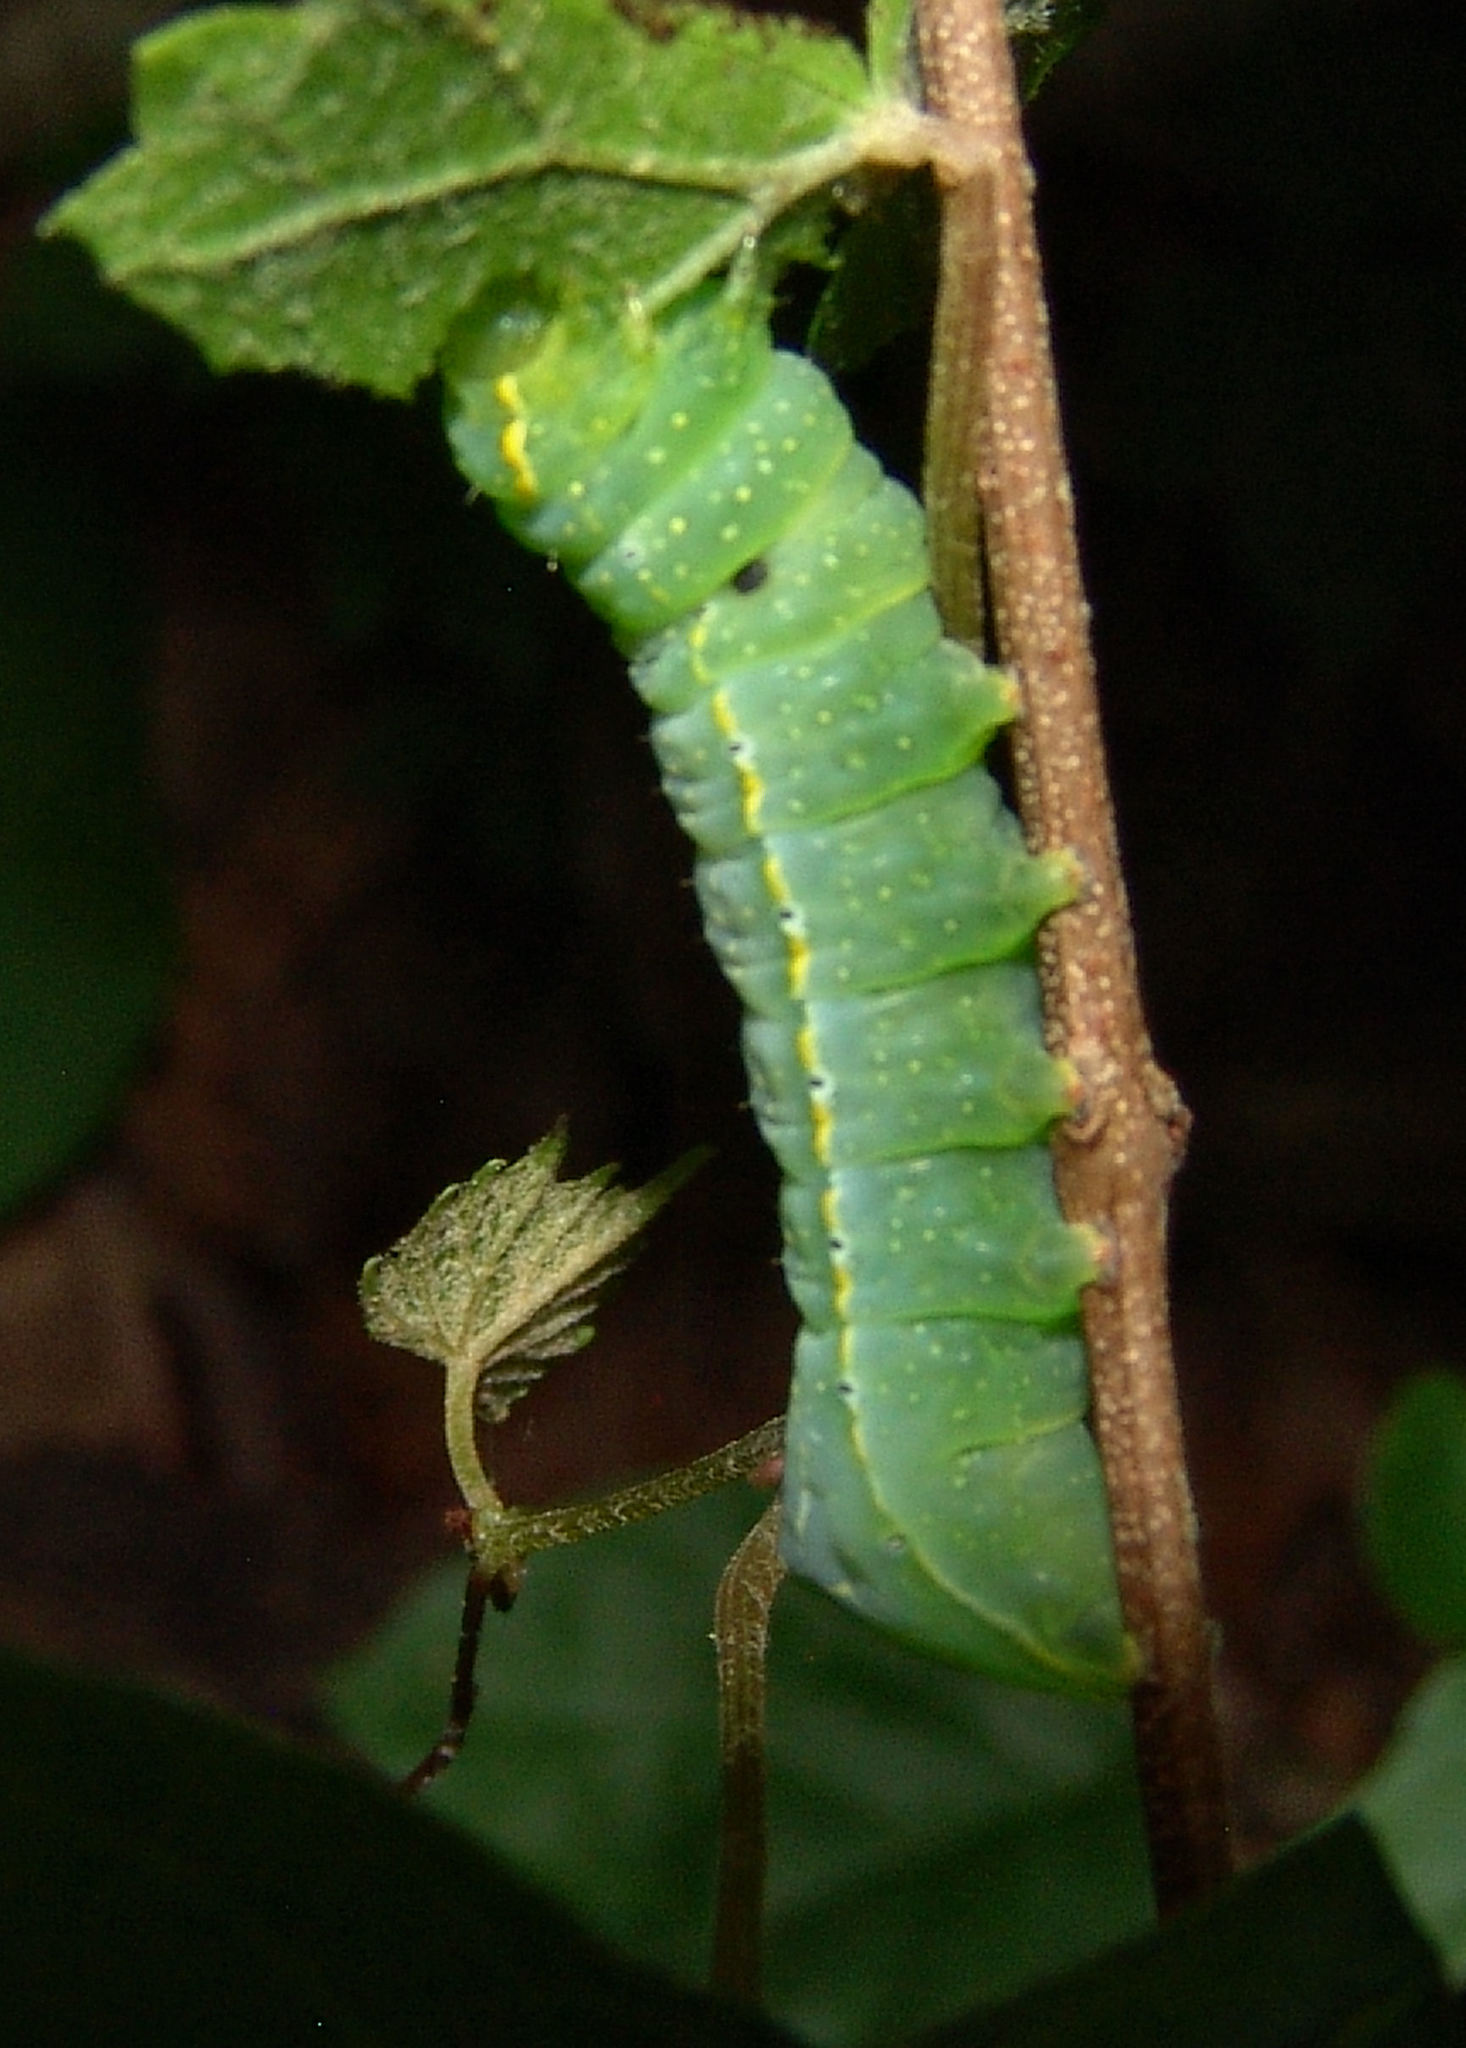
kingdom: Animalia
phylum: Arthropoda
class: Insecta
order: Lepidoptera
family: Noctuidae
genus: Amphipyra
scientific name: Amphipyra pyramidoides
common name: American copper underwing
